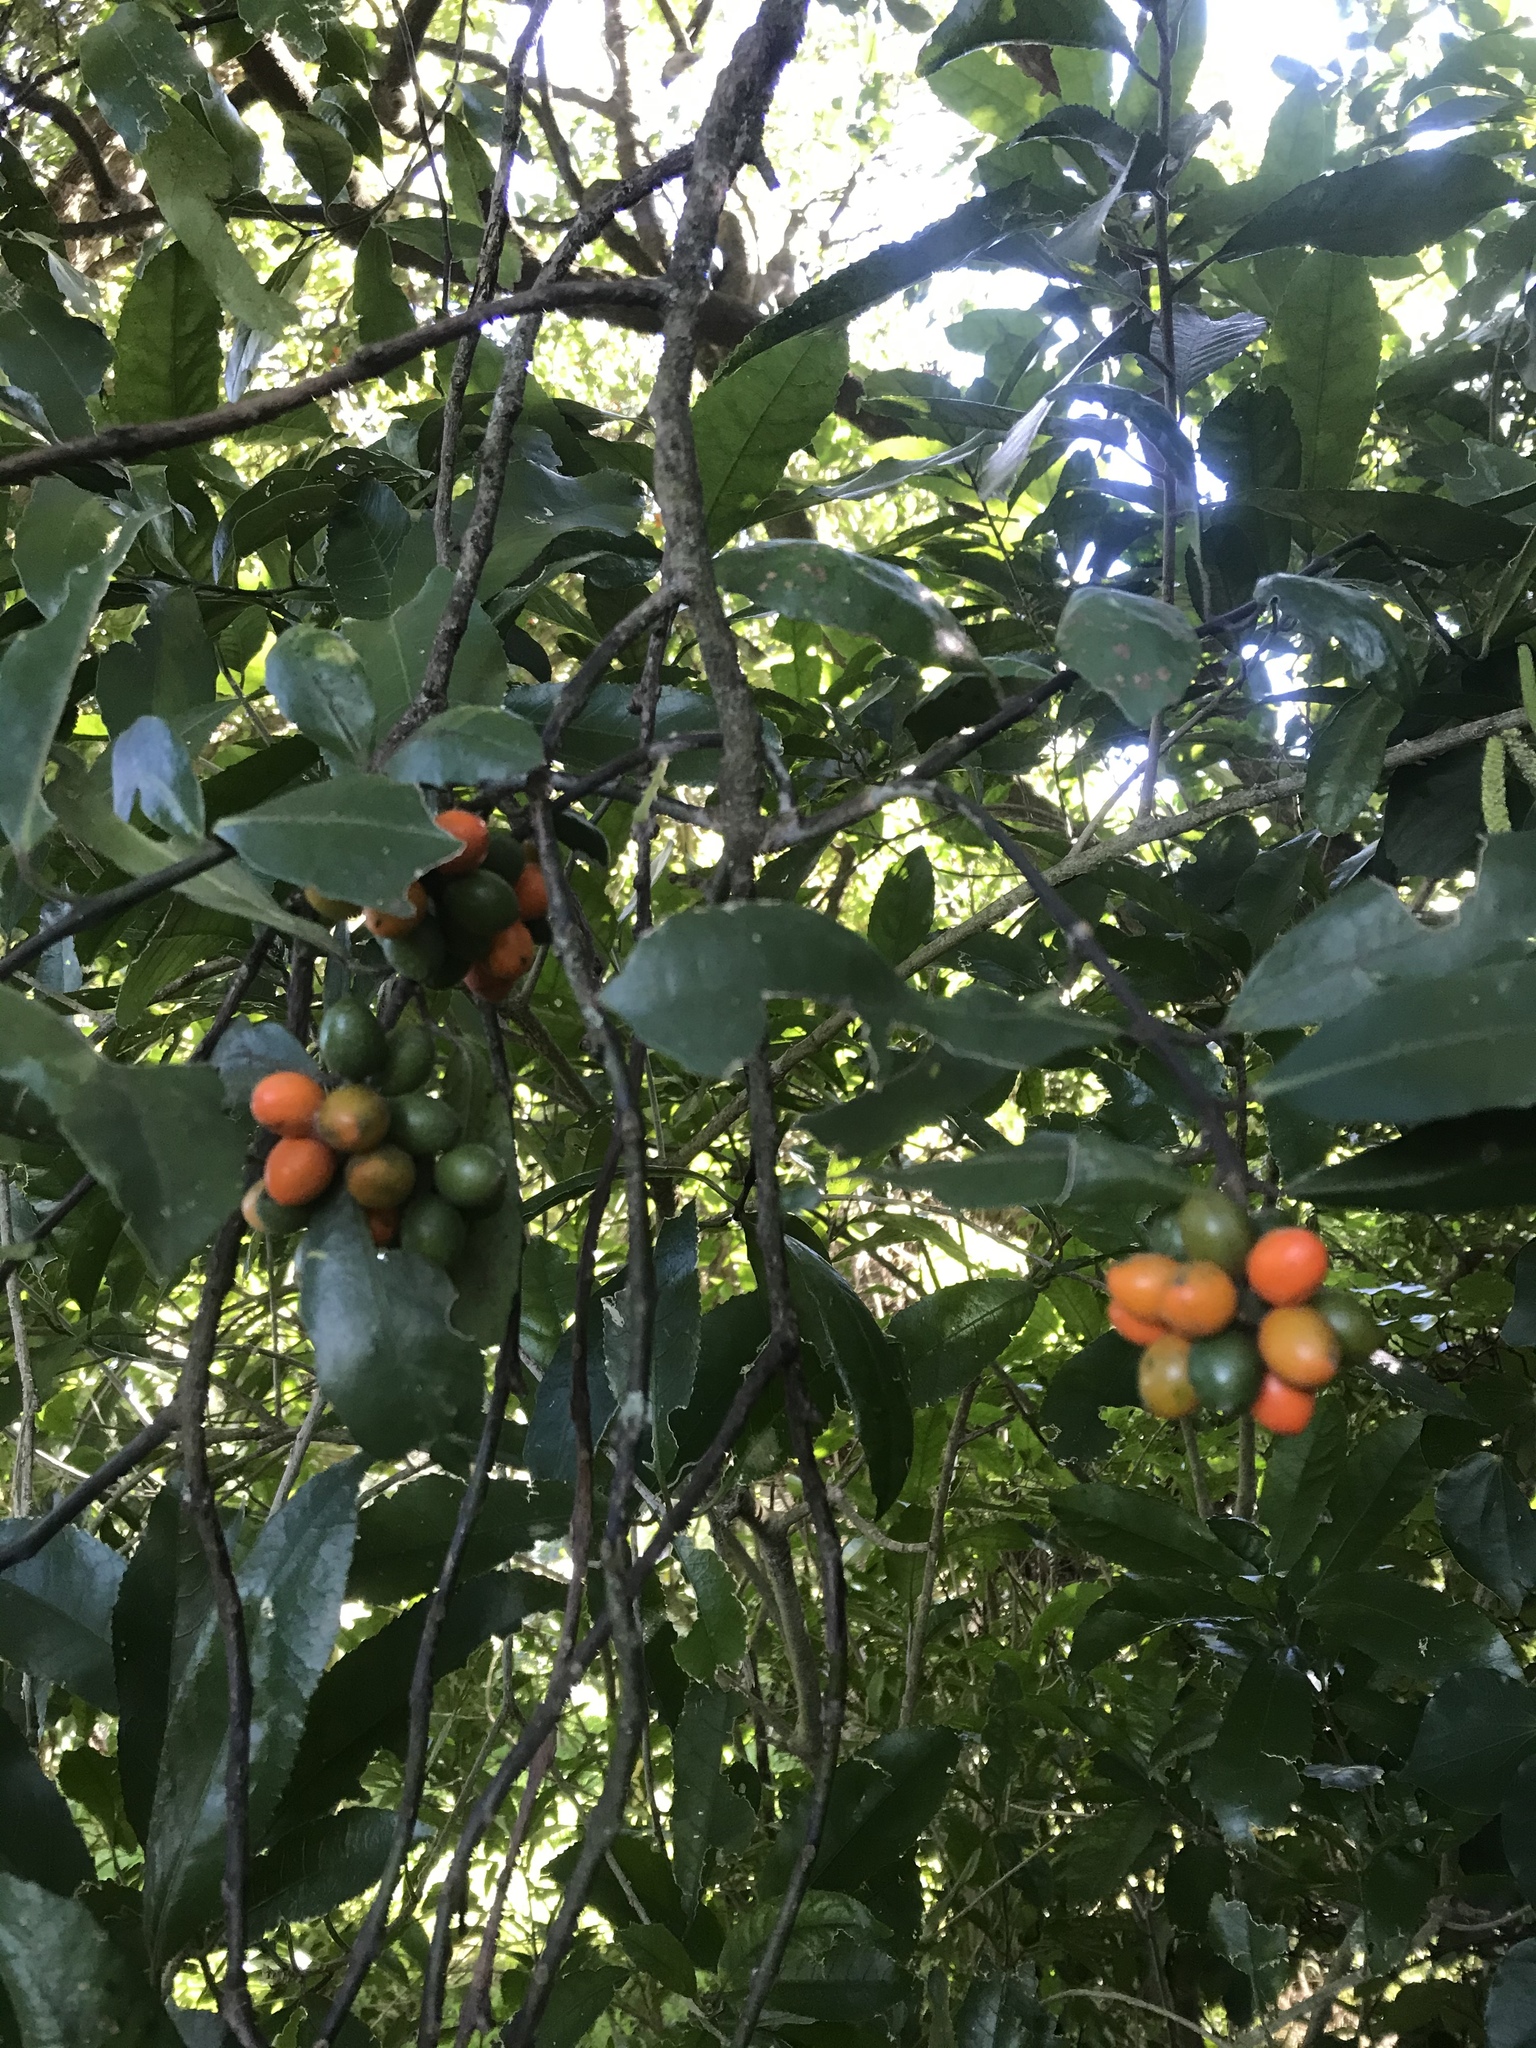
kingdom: Plantae
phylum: Tracheophyta
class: Magnoliopsida
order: Laurales
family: Monimiaceae
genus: Hedycarya
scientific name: Hedycarya arborea
